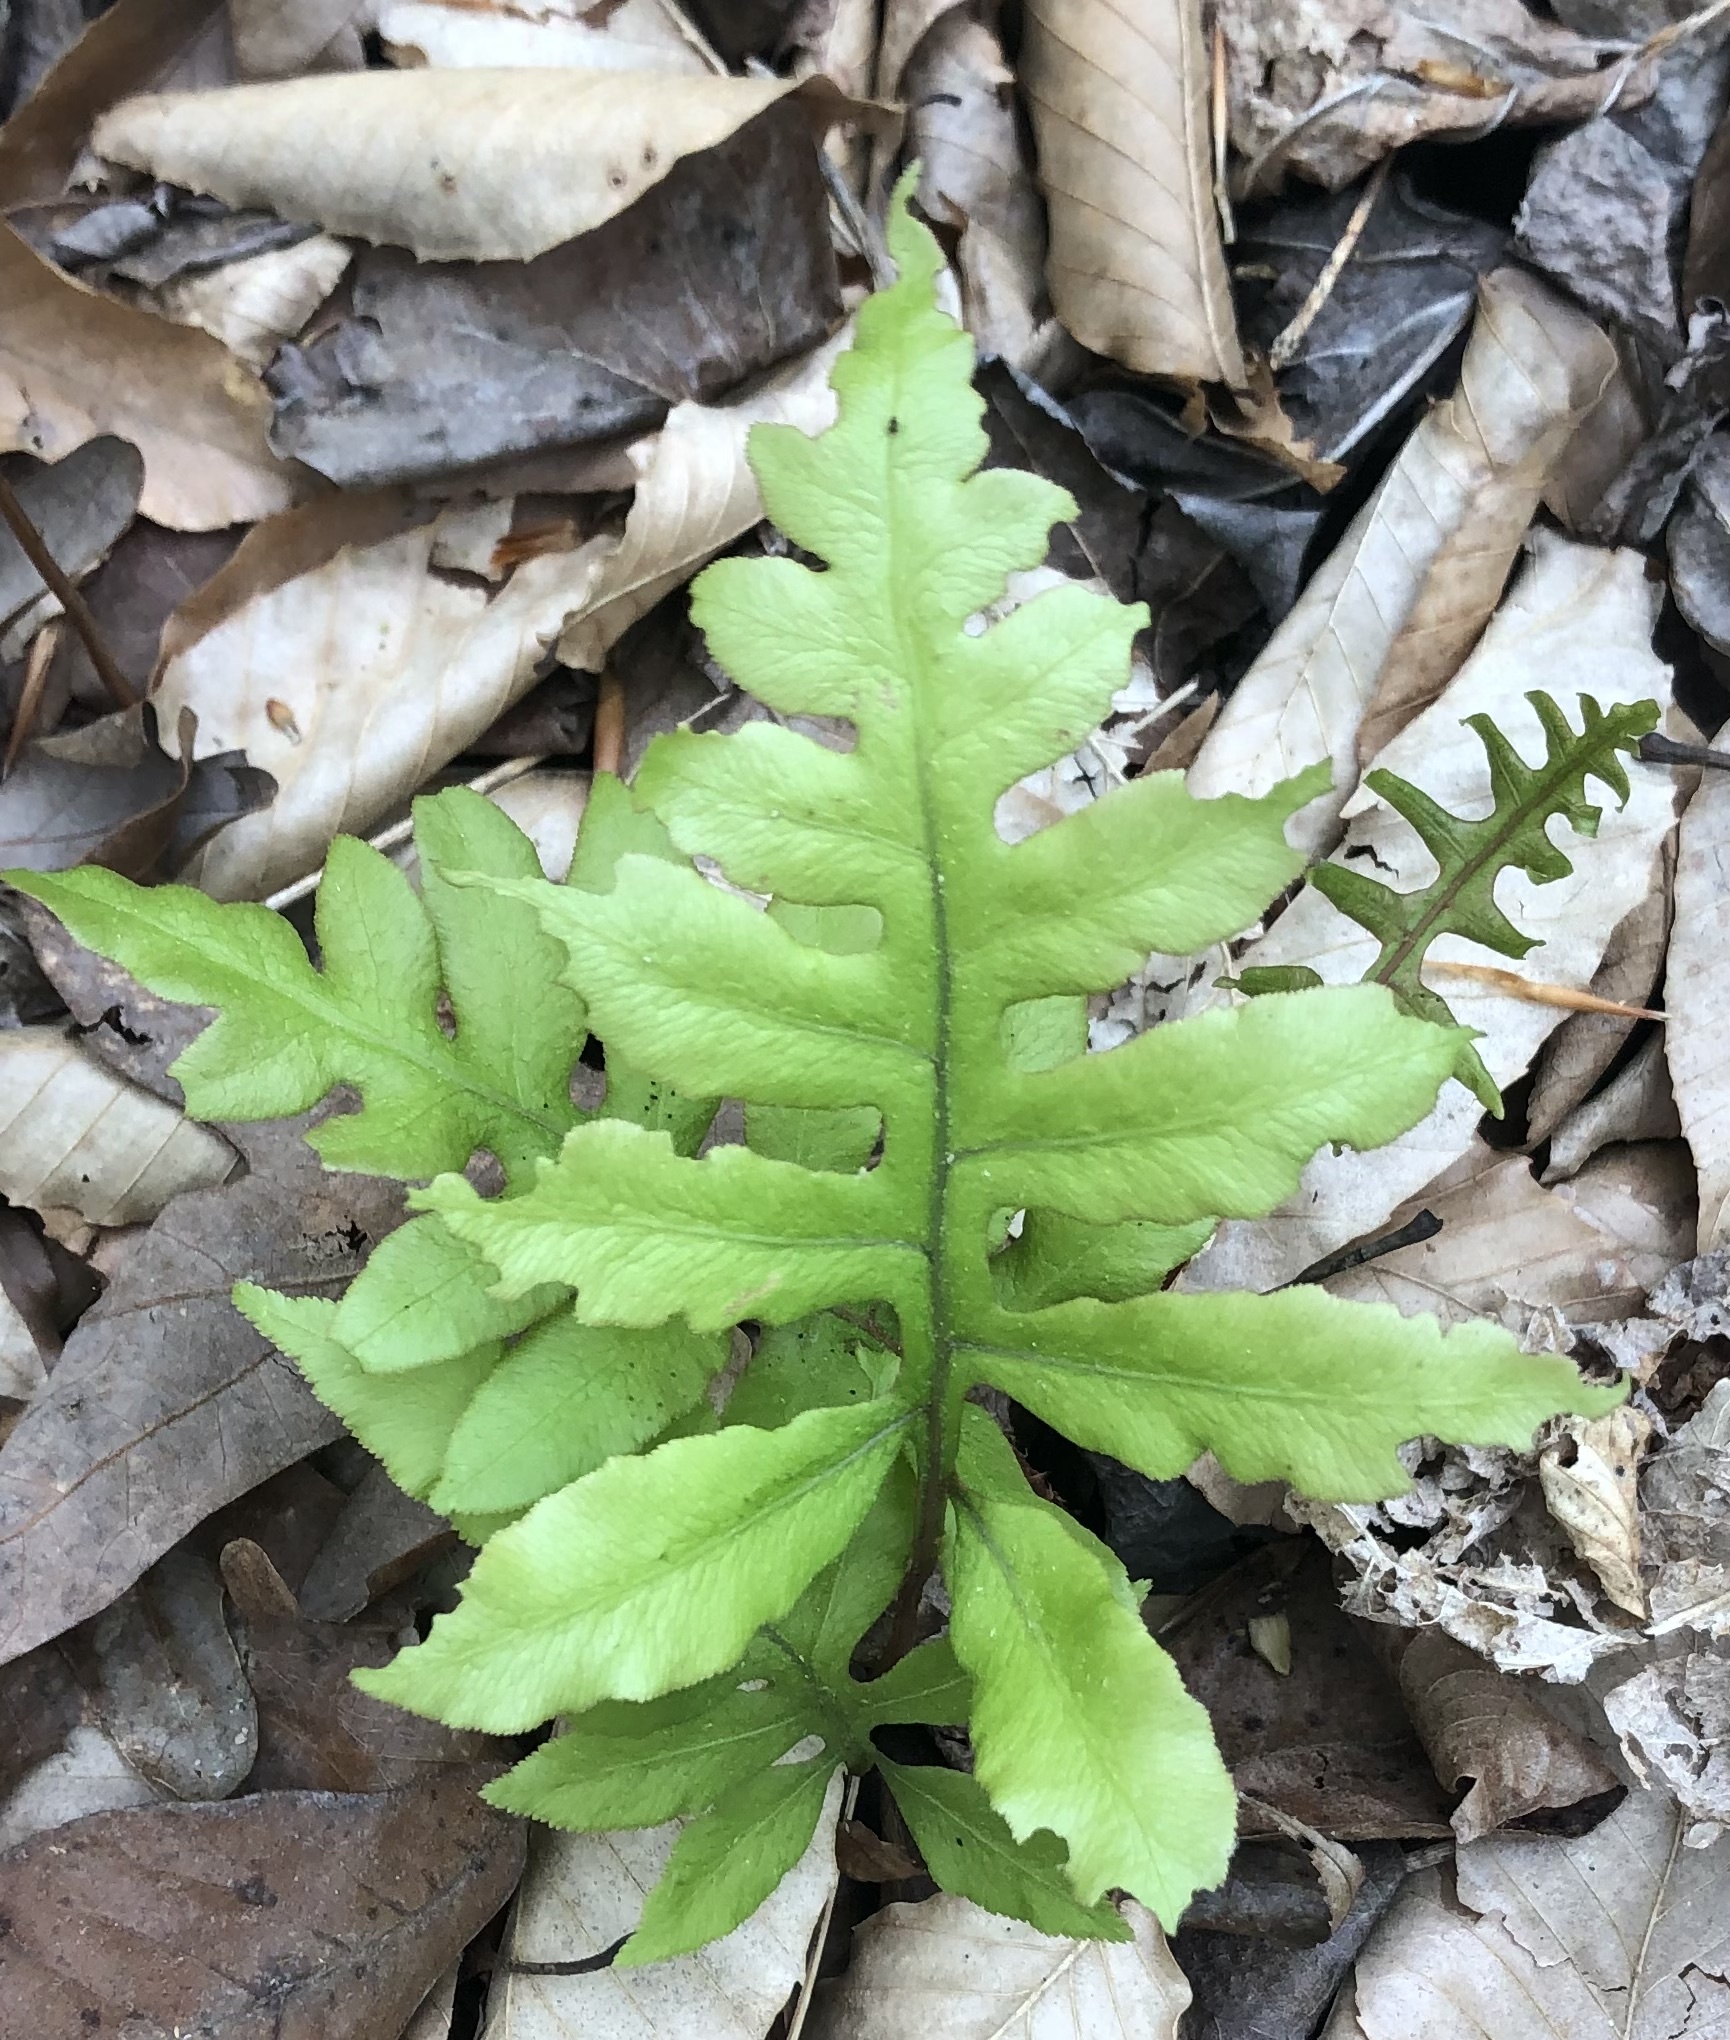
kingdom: Plantae
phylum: Tracheophyta
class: Polypodiopsida
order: Polypodiales
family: Blechnaceae
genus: Lorinseria
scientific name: Lorinseria areolata
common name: Dwarf chain fern
